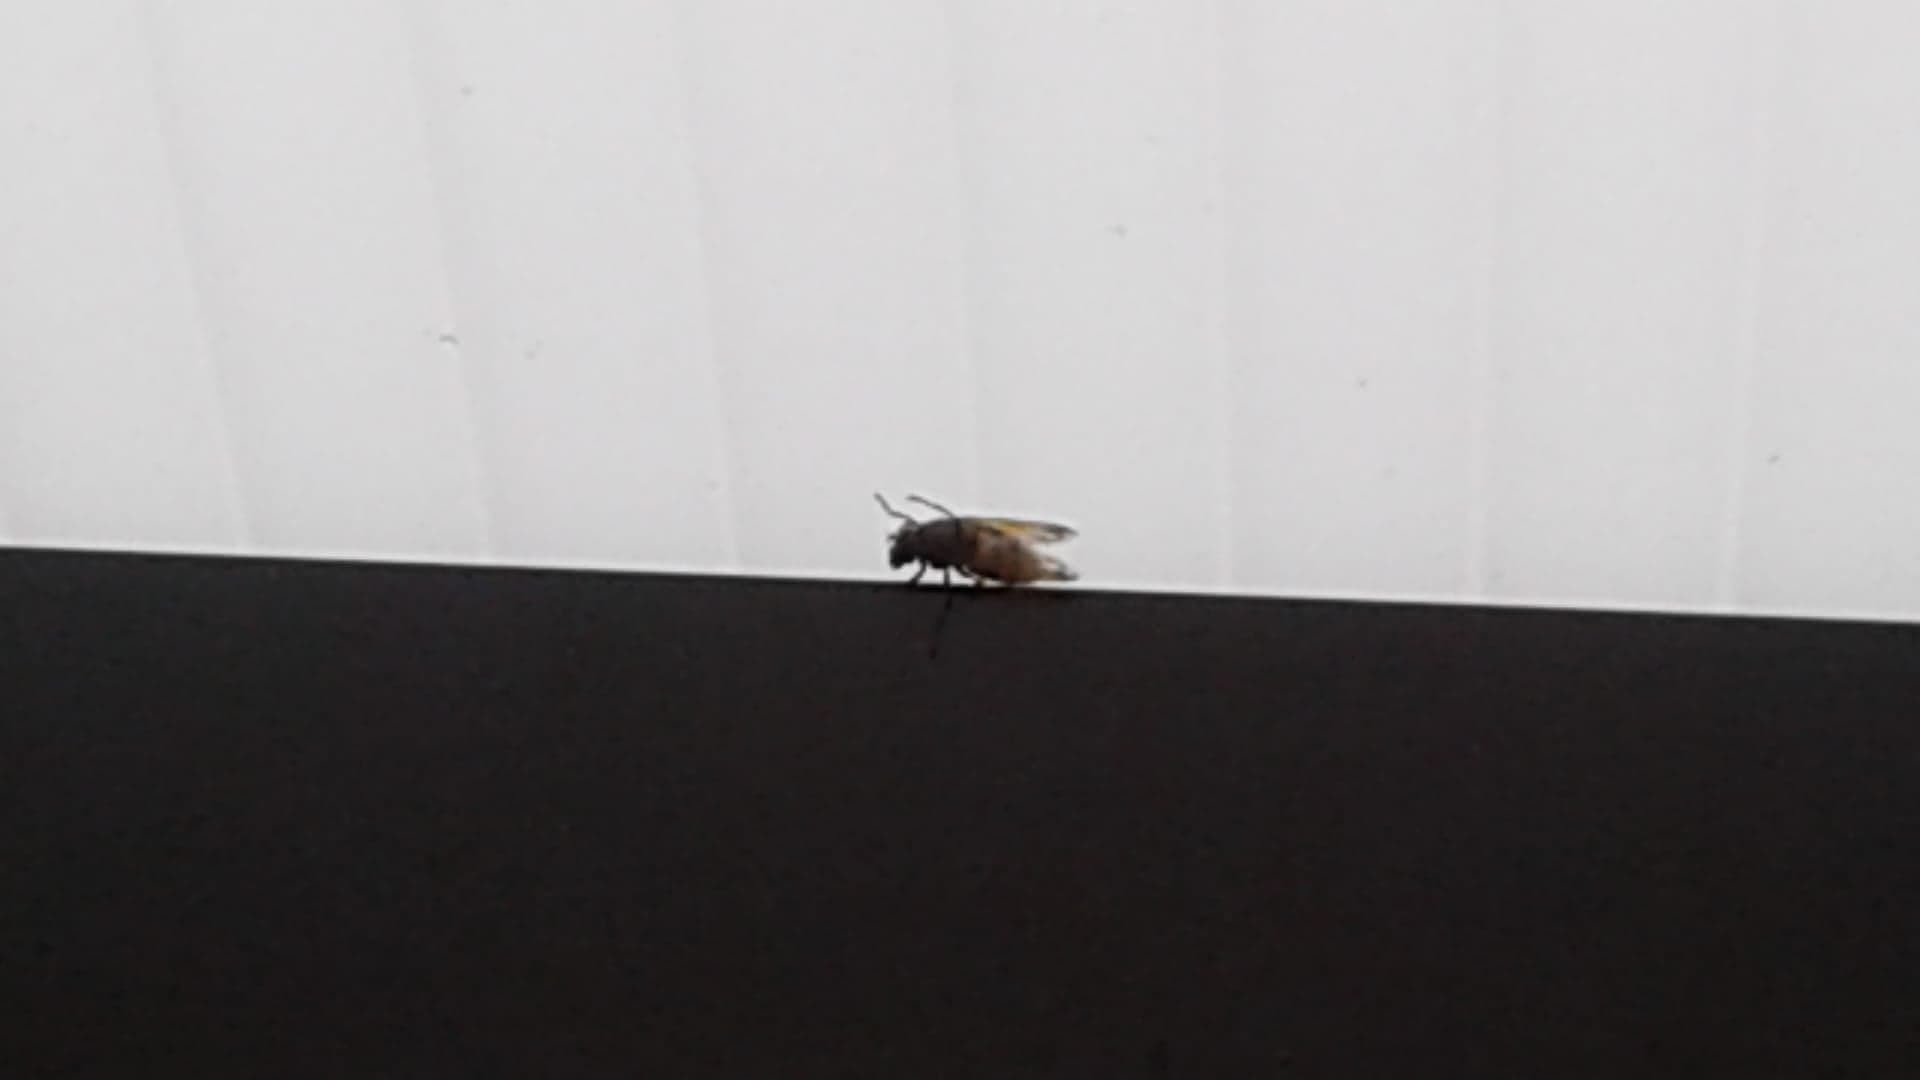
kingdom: Animalia
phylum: Arthropoda
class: Insecta
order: Diptera
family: Syrphidae
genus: Volucella
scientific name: Volucella
